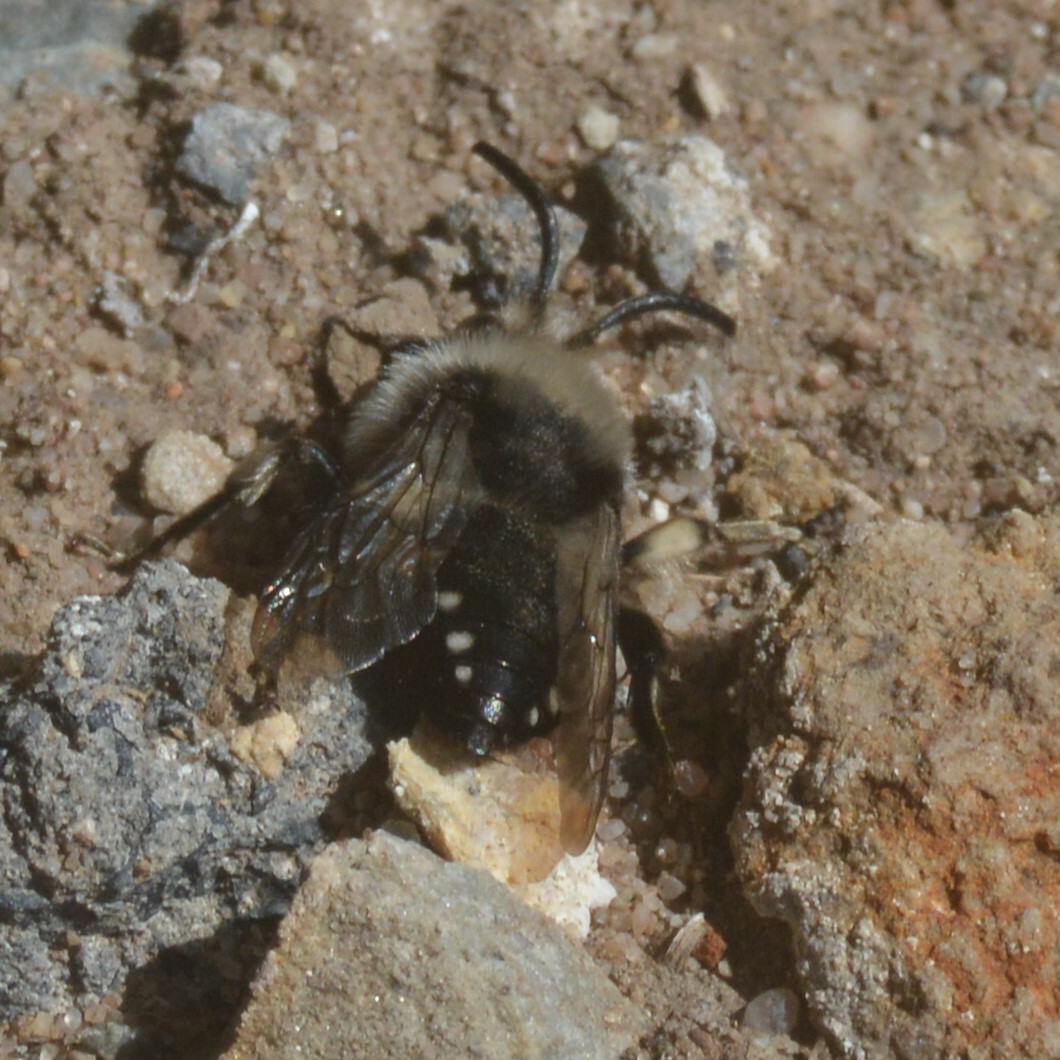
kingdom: Animalia
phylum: Arthropoda
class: Insecta
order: Hymenoptera
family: Apidae
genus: Melecta
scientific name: Melecta albifrons
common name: Common mourning bee
